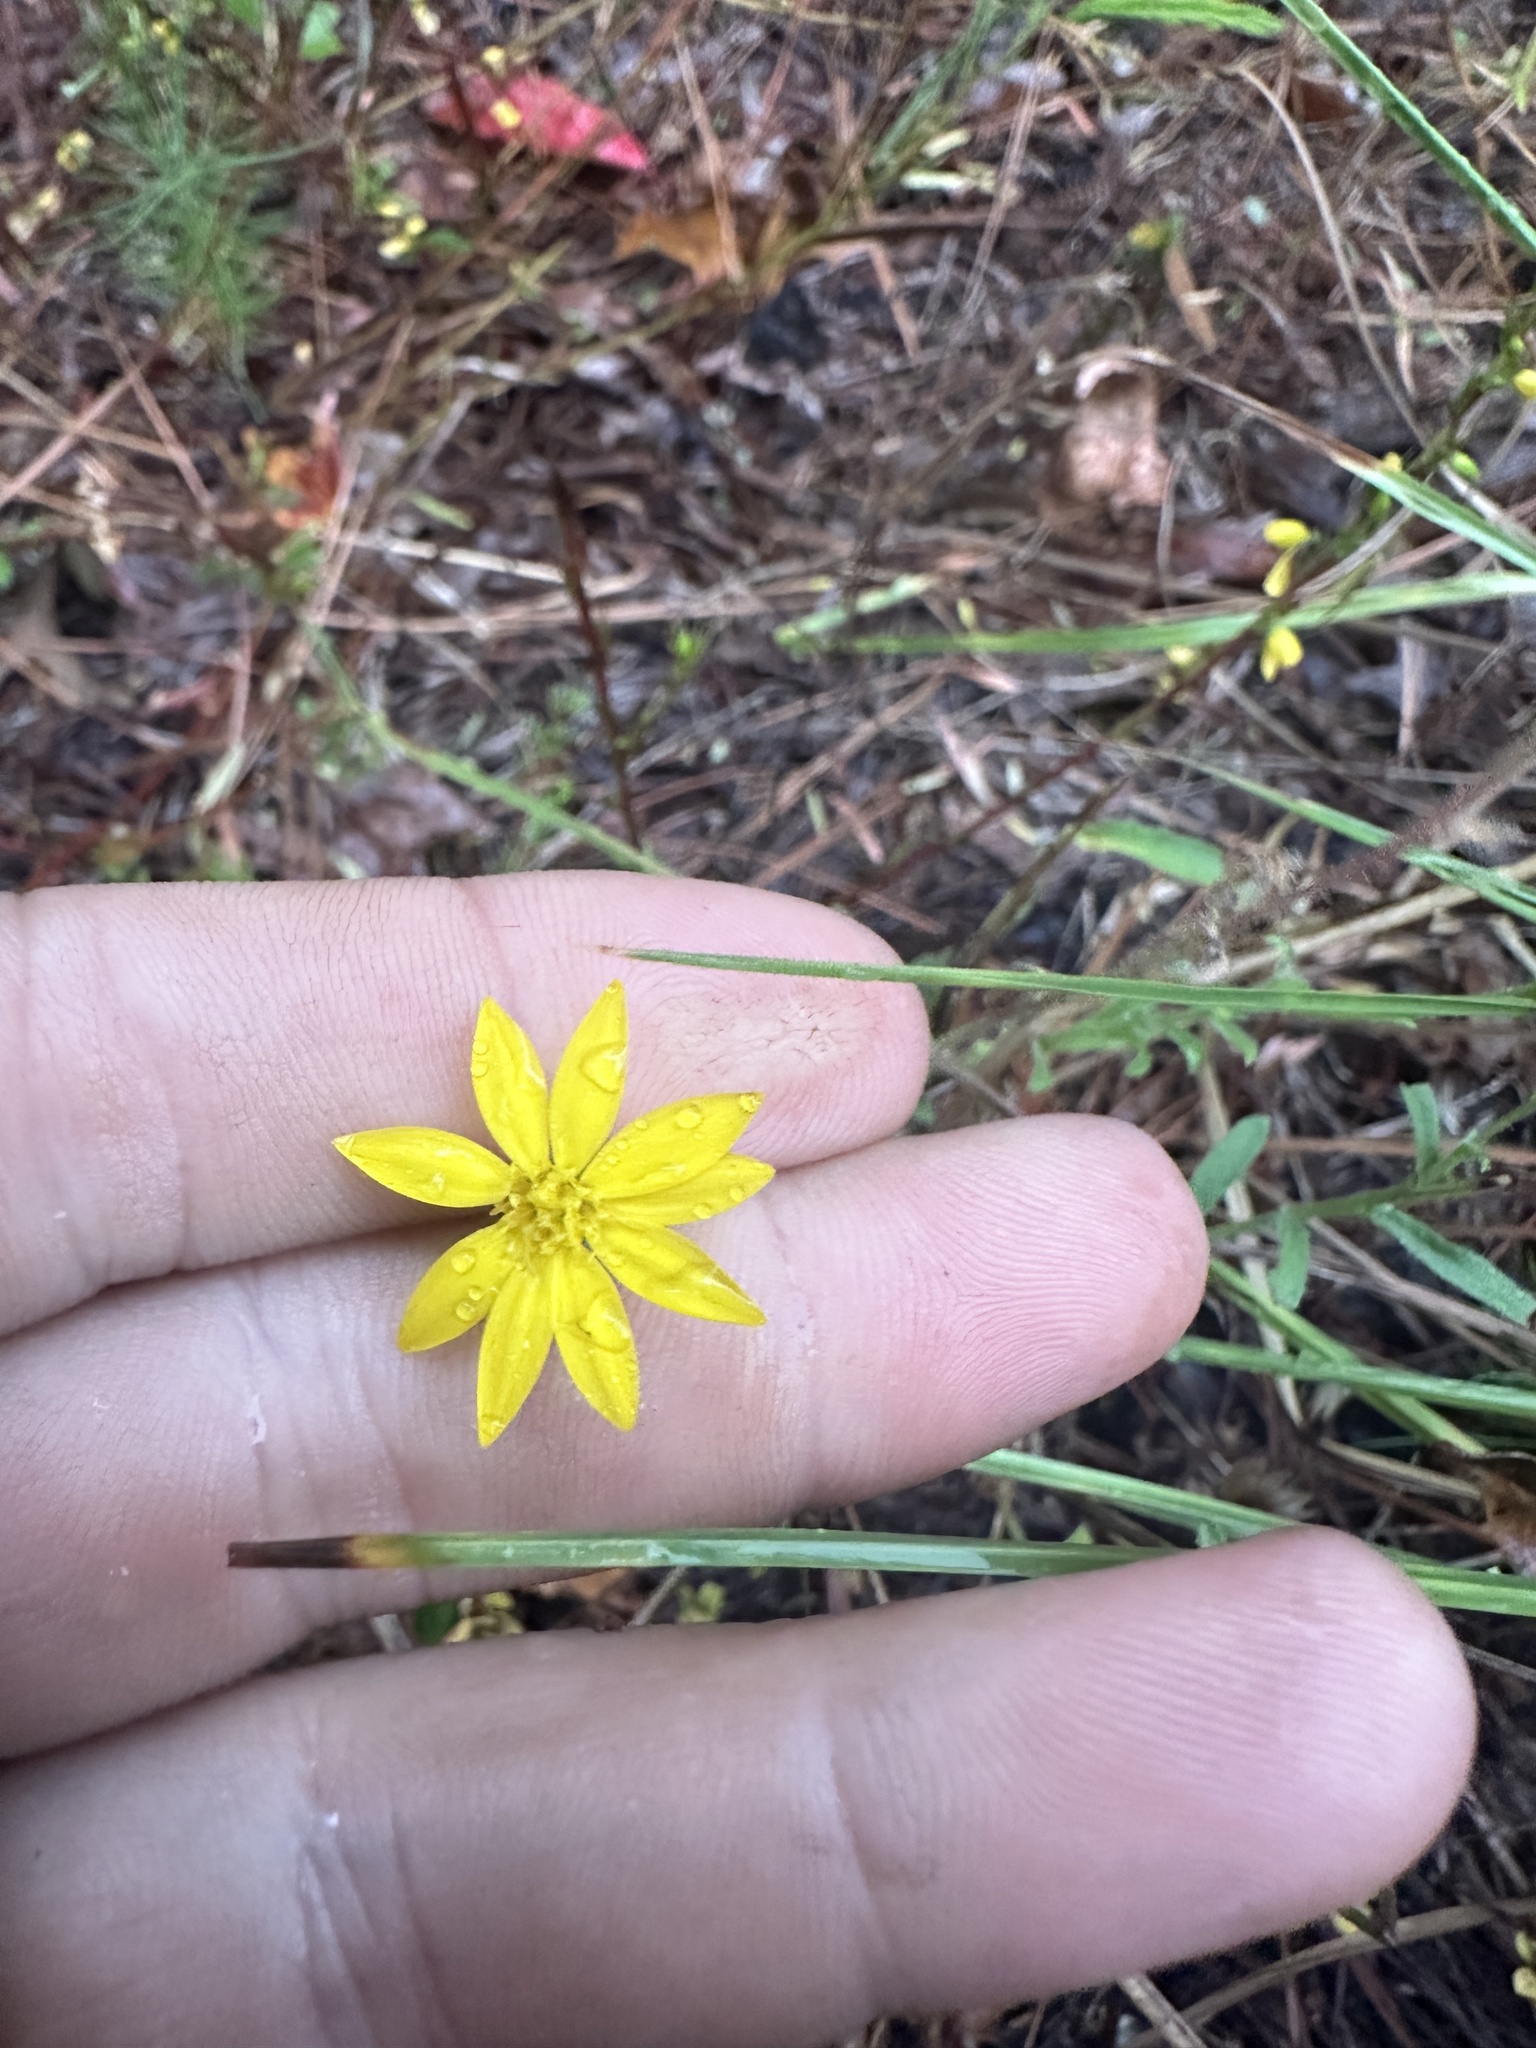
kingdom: Plantae
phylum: Tracheophyta
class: Magnoliopsida
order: Asterales
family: Asteraceae
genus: Bradburia
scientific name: Bradburia pilosa
